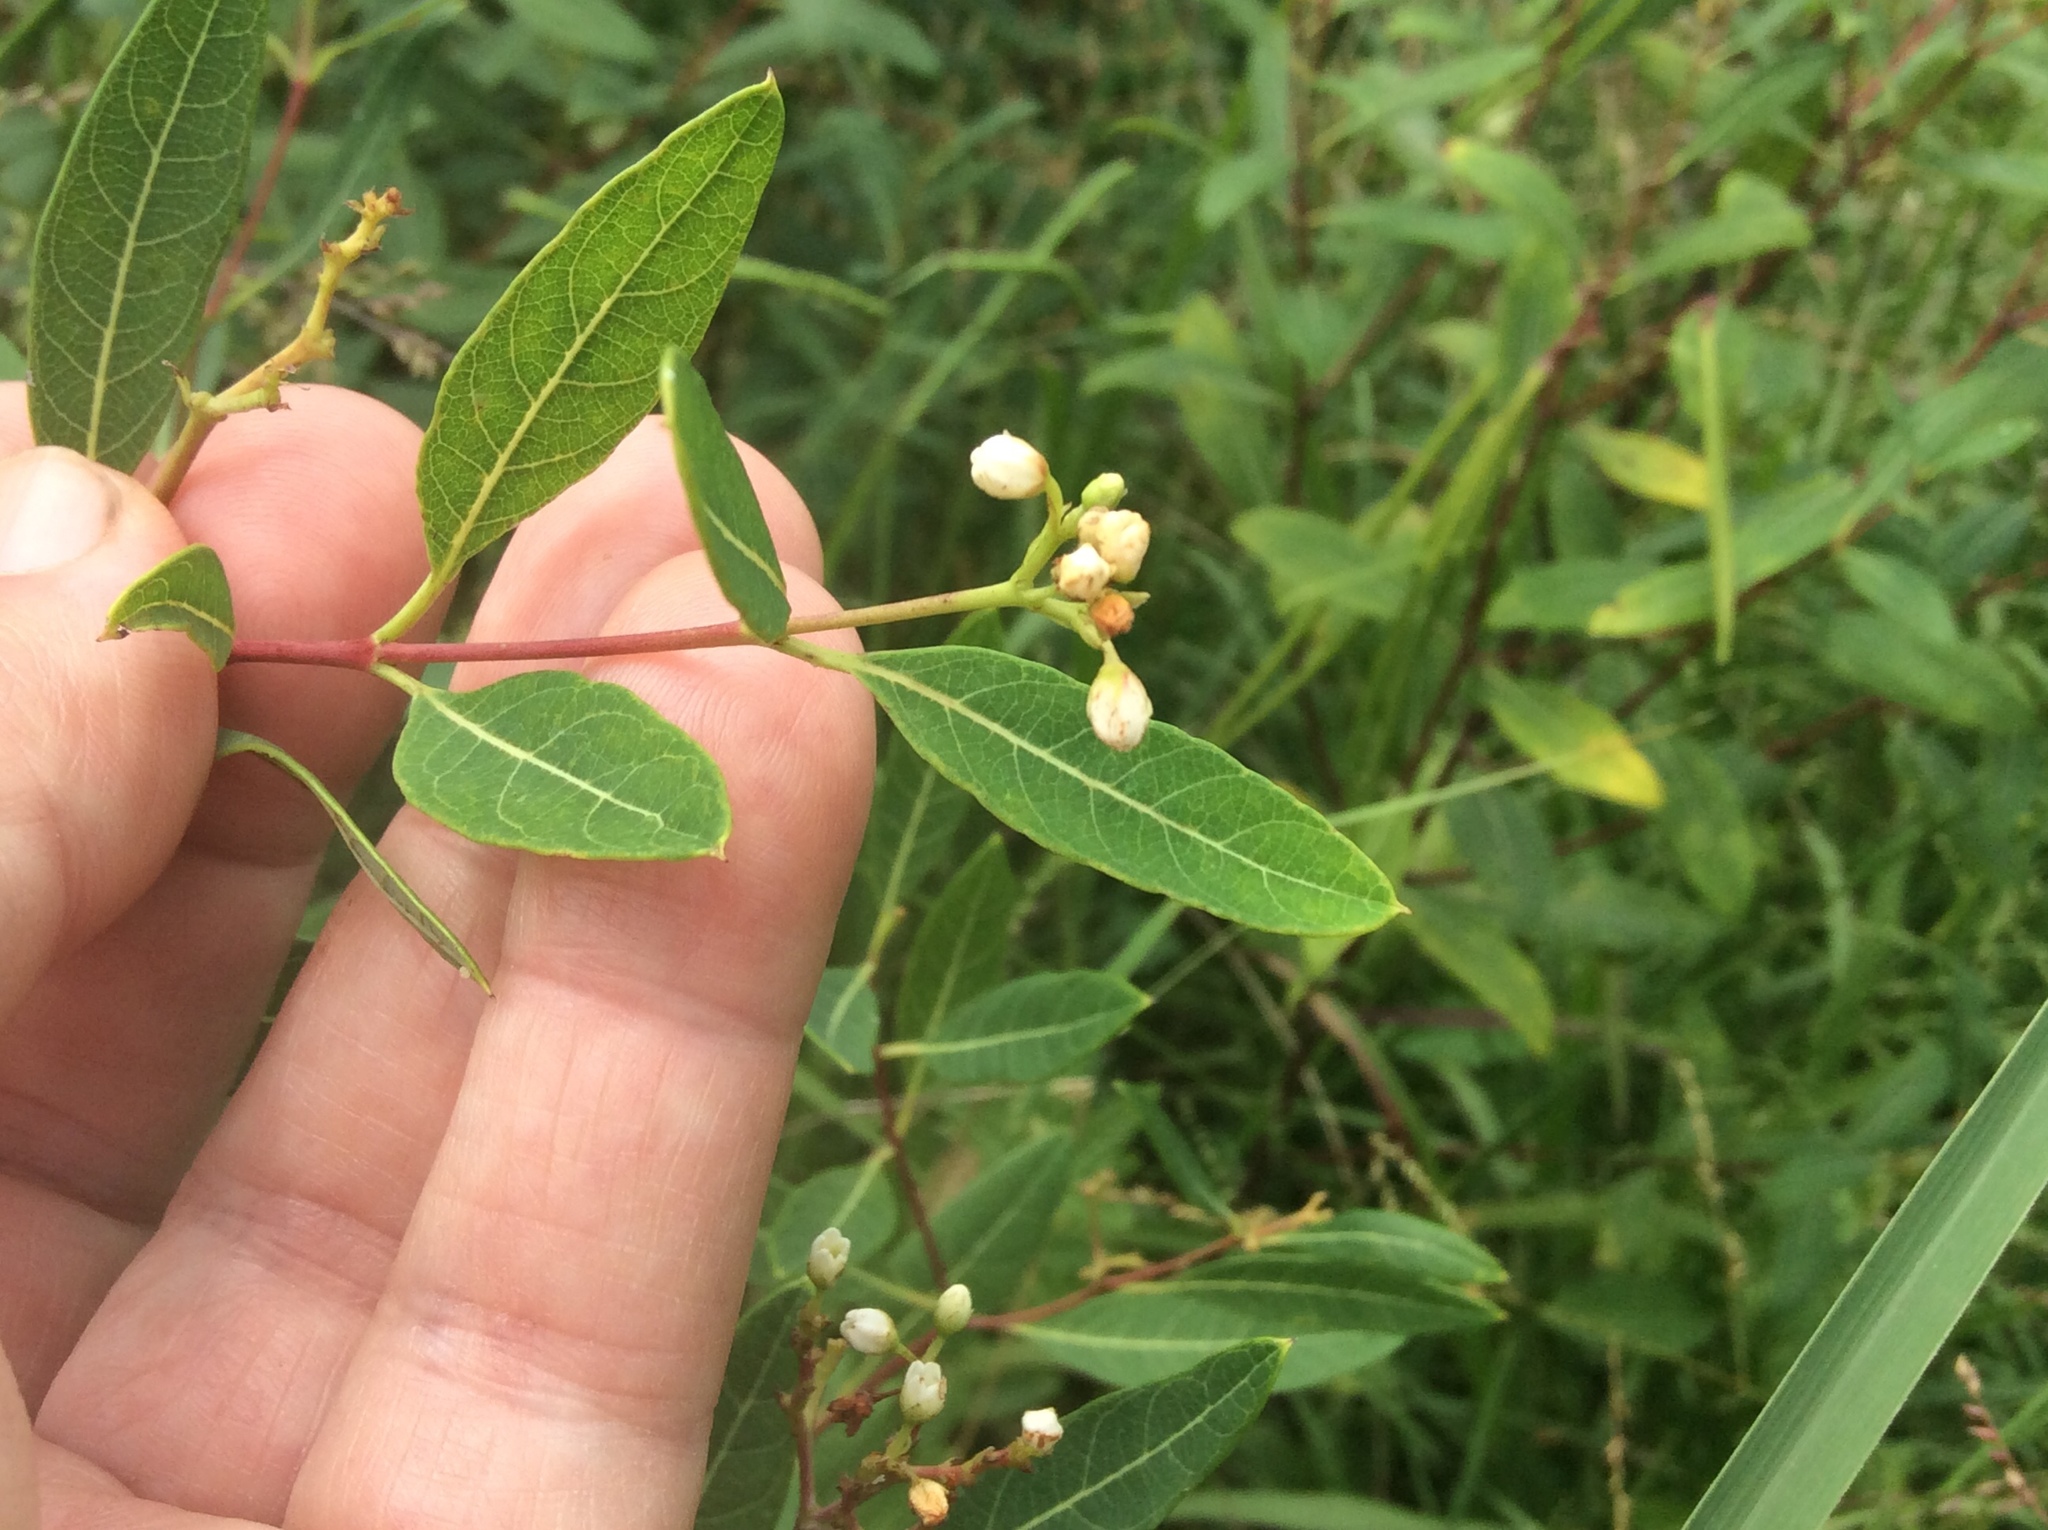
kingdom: Plantae
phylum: Tracheophyta
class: Magnoliopsida
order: Gentianales
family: Apocynaceae
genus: Apocynum
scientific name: Apocynum cannabinum
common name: Hemp dogbane
